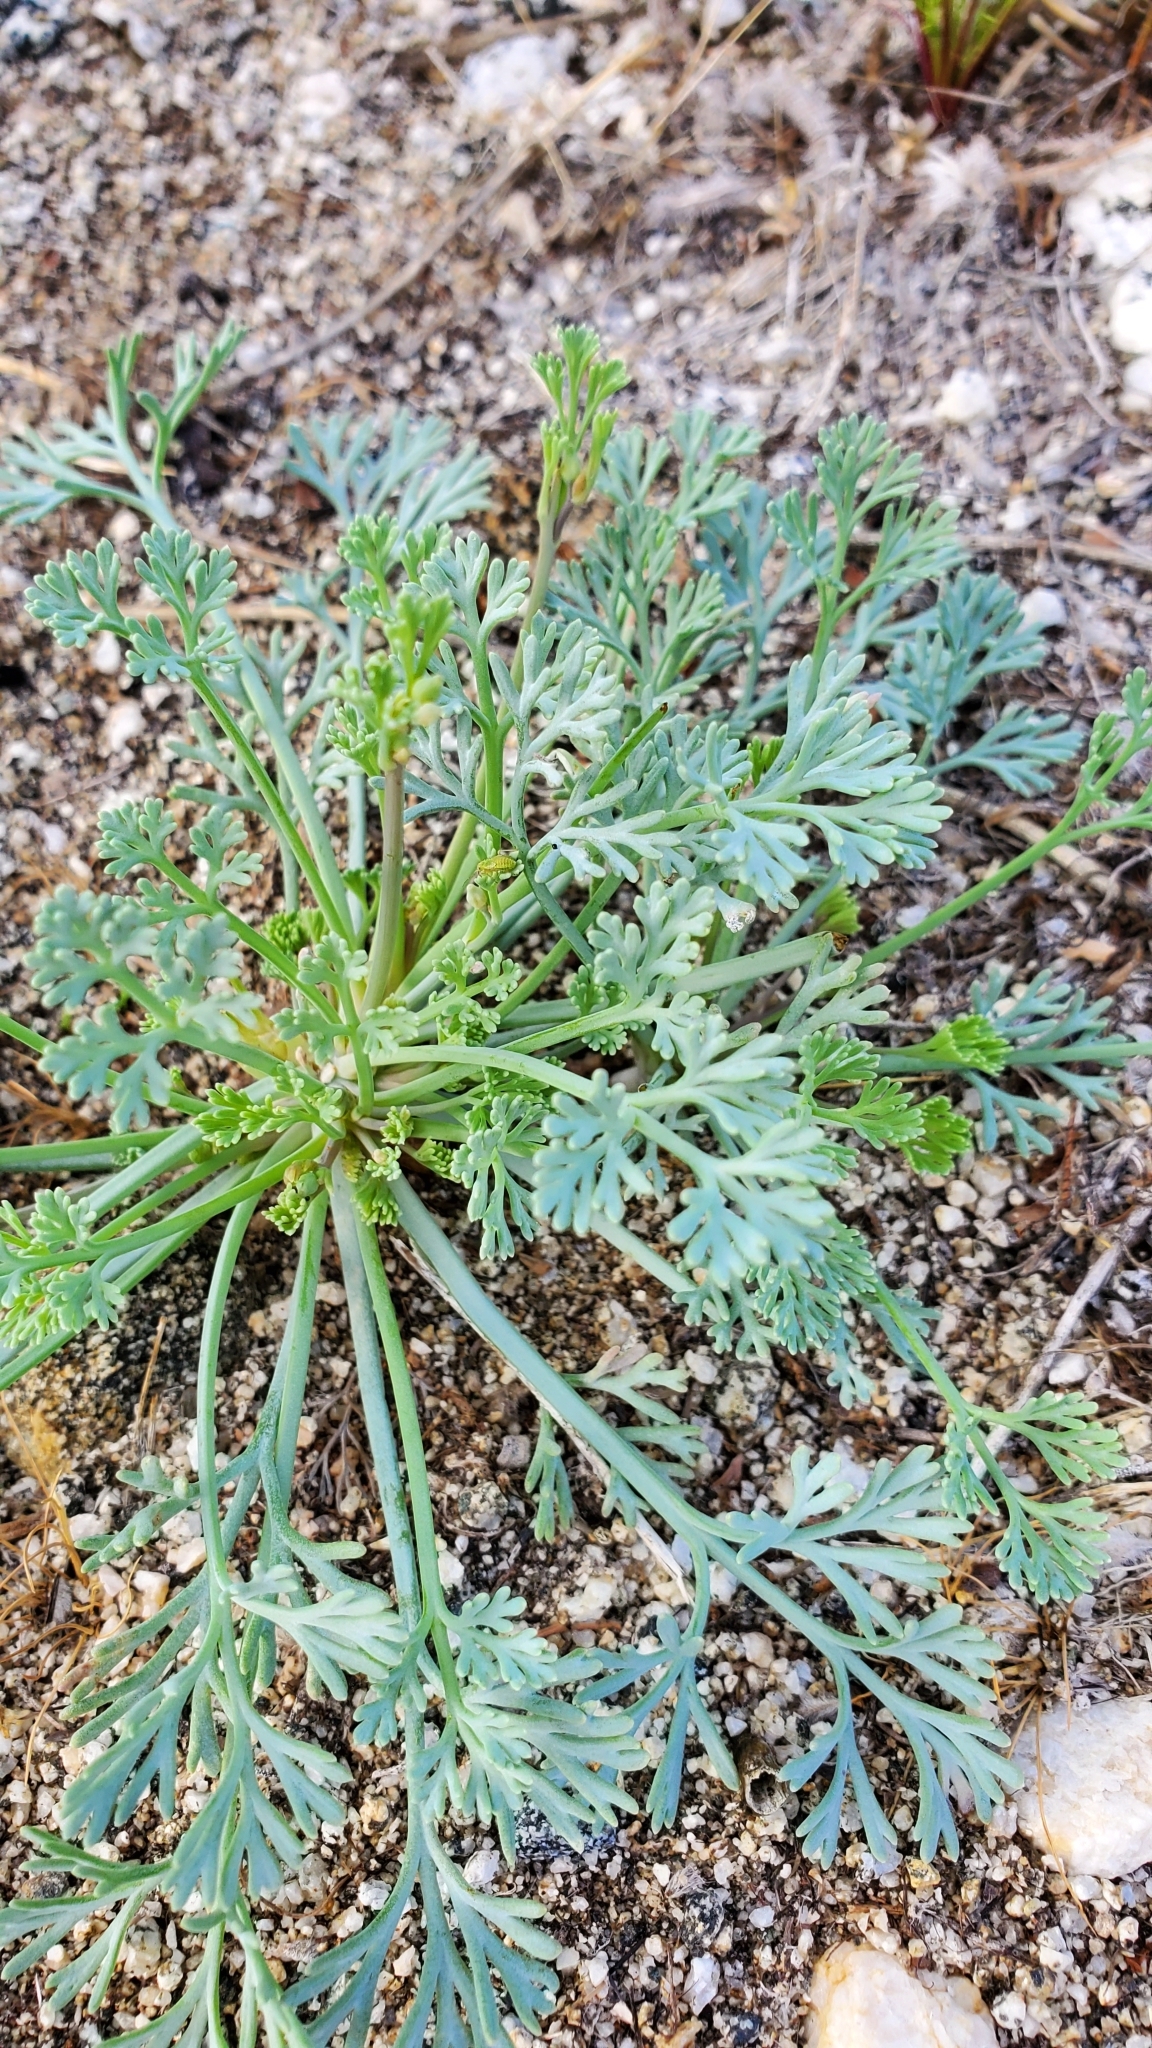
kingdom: Plantae
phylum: Tracheophyta
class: Magnoliopsida
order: Ranunculales
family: Papaveraceae
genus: Eschscholzia
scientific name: Eschscholzia minutiflora
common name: Small-flower california-poppy
